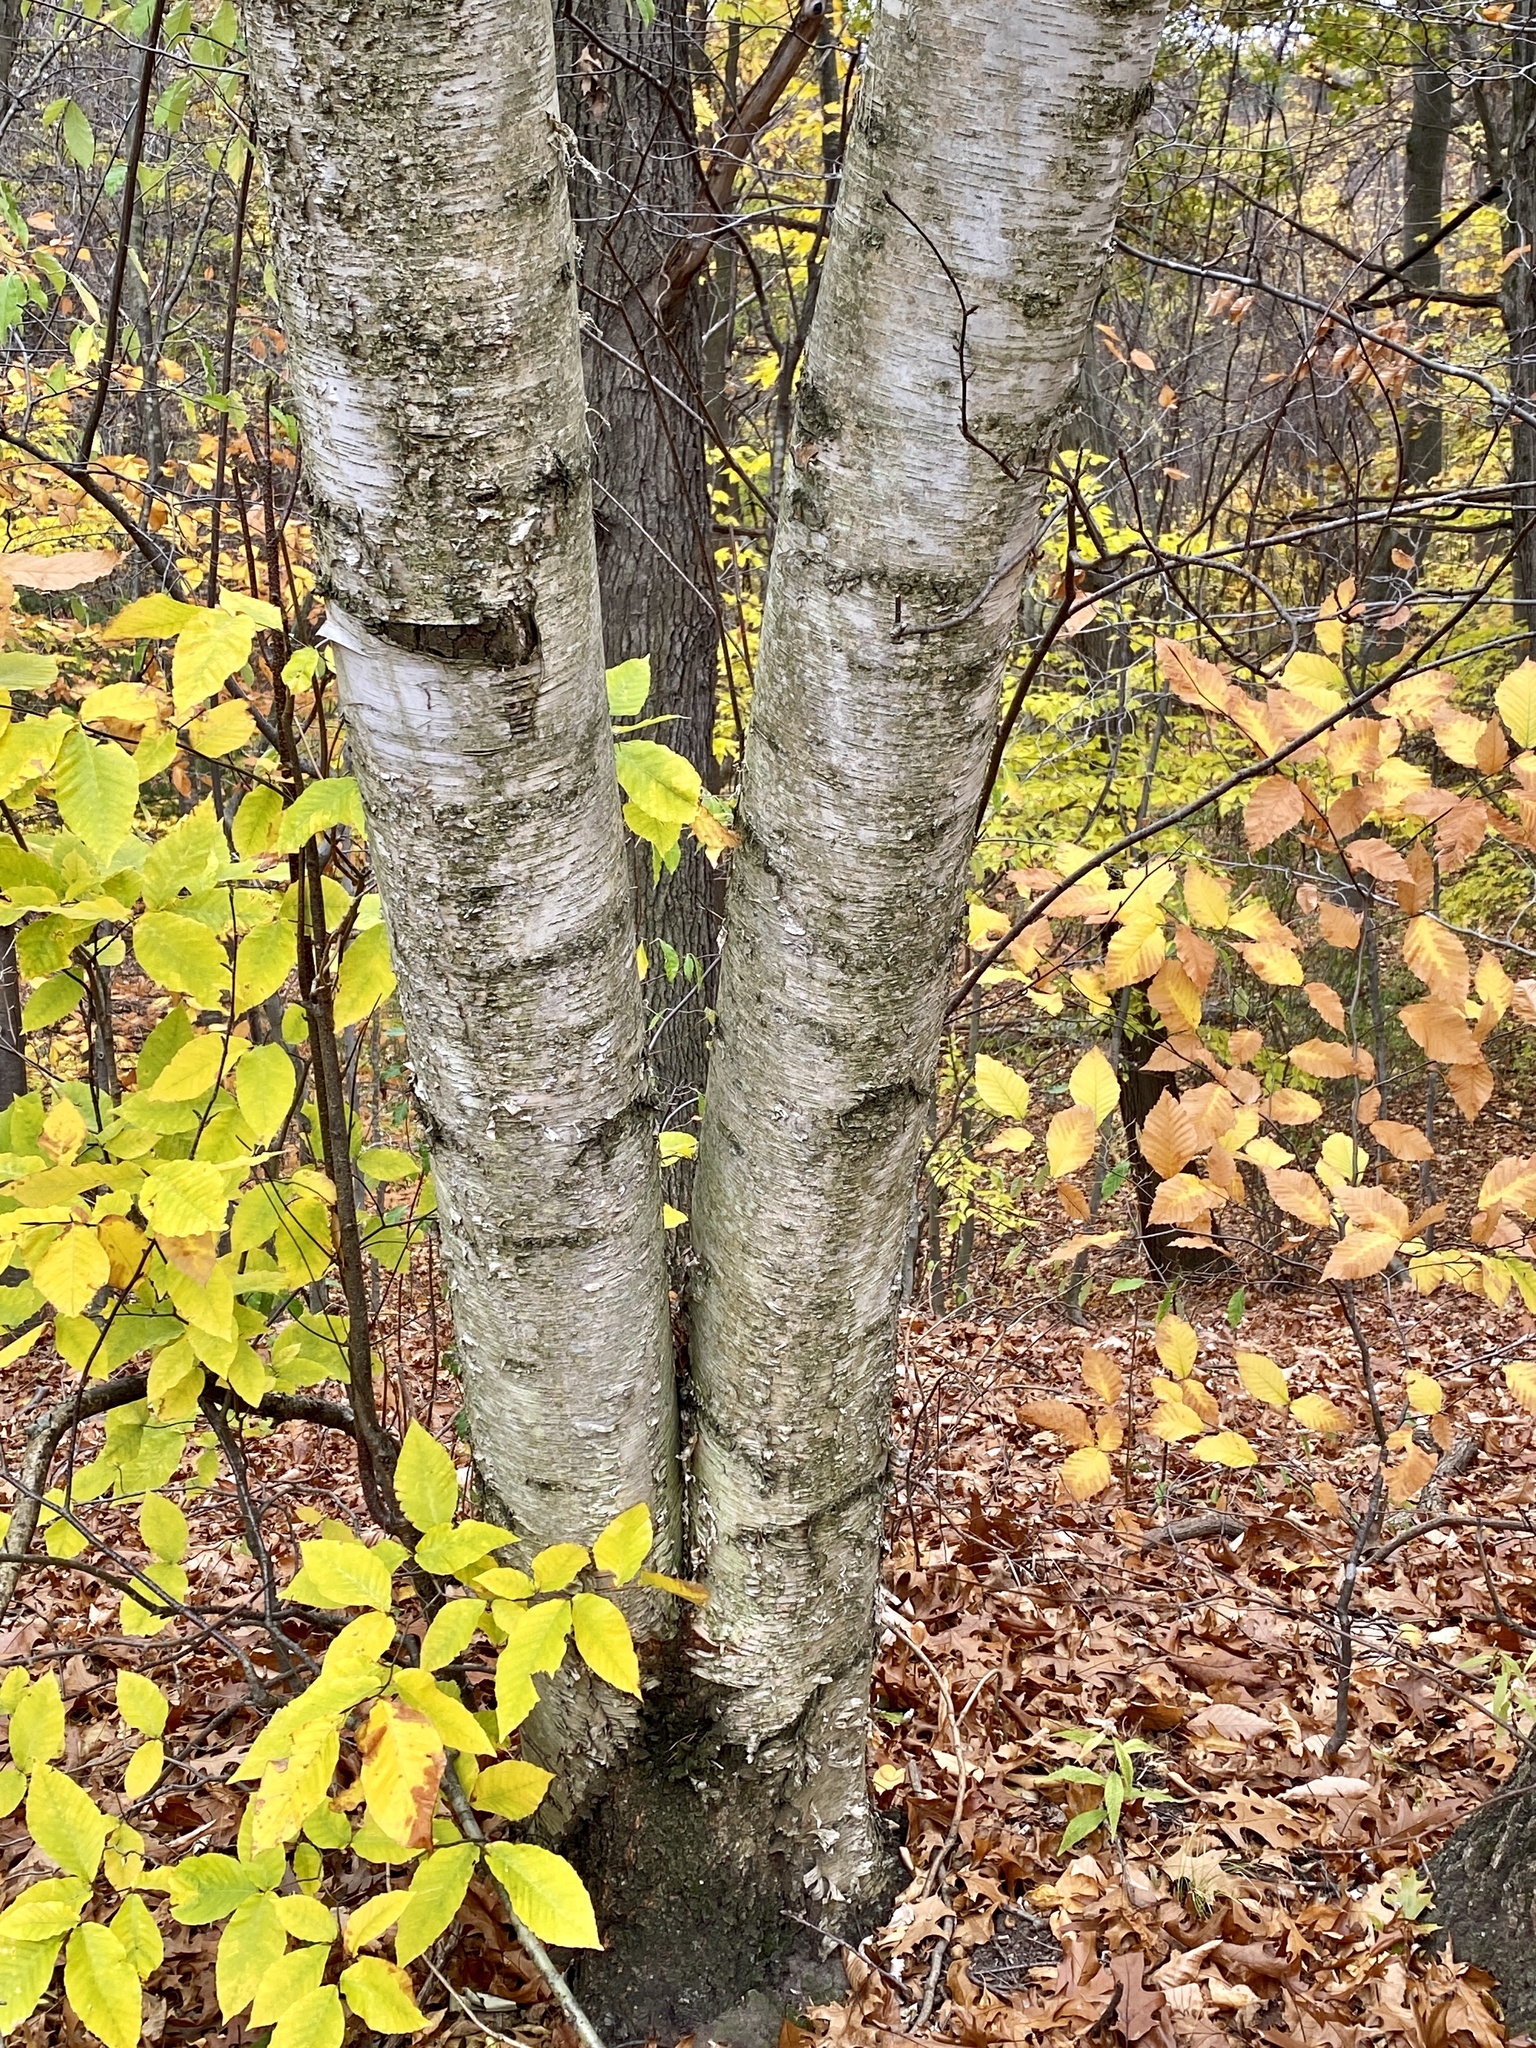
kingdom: Plantae
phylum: Tracheophyta
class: Magnoliopsida
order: Fagales
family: Betulaceae
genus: Betula
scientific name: Betula papyrifera
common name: Paper birch
